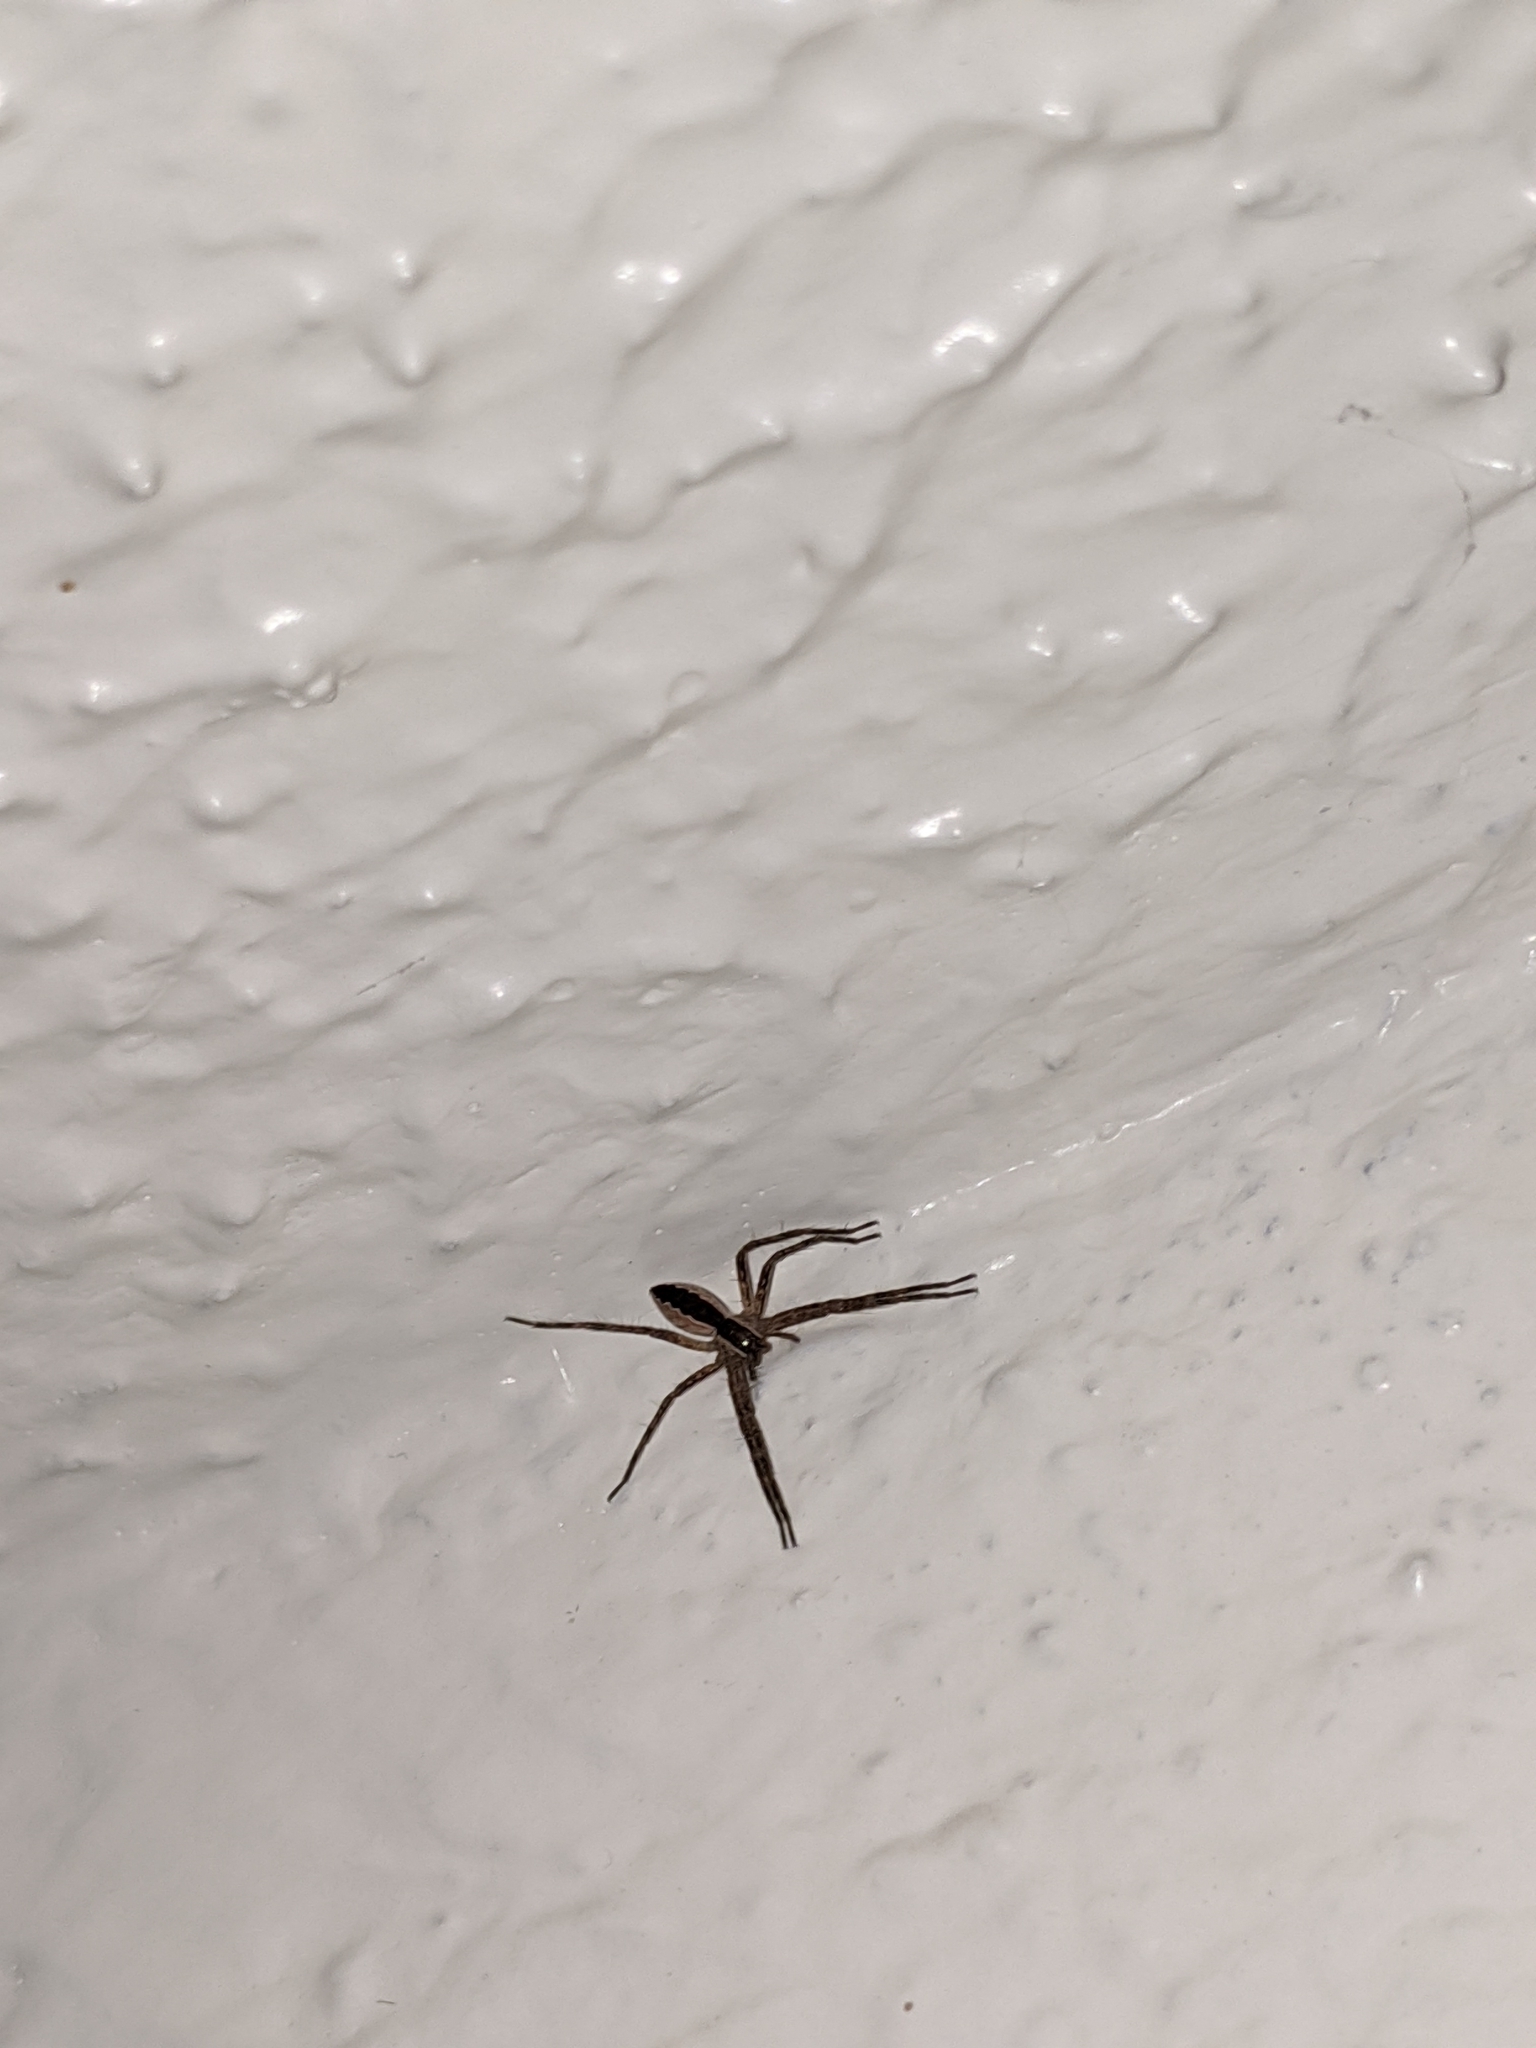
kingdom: Animalia
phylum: Arthropoda
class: Arachnida
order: Araneae
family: Pisauridae
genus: Pisaurina
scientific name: Pisaurina mira
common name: American nursery web spider
